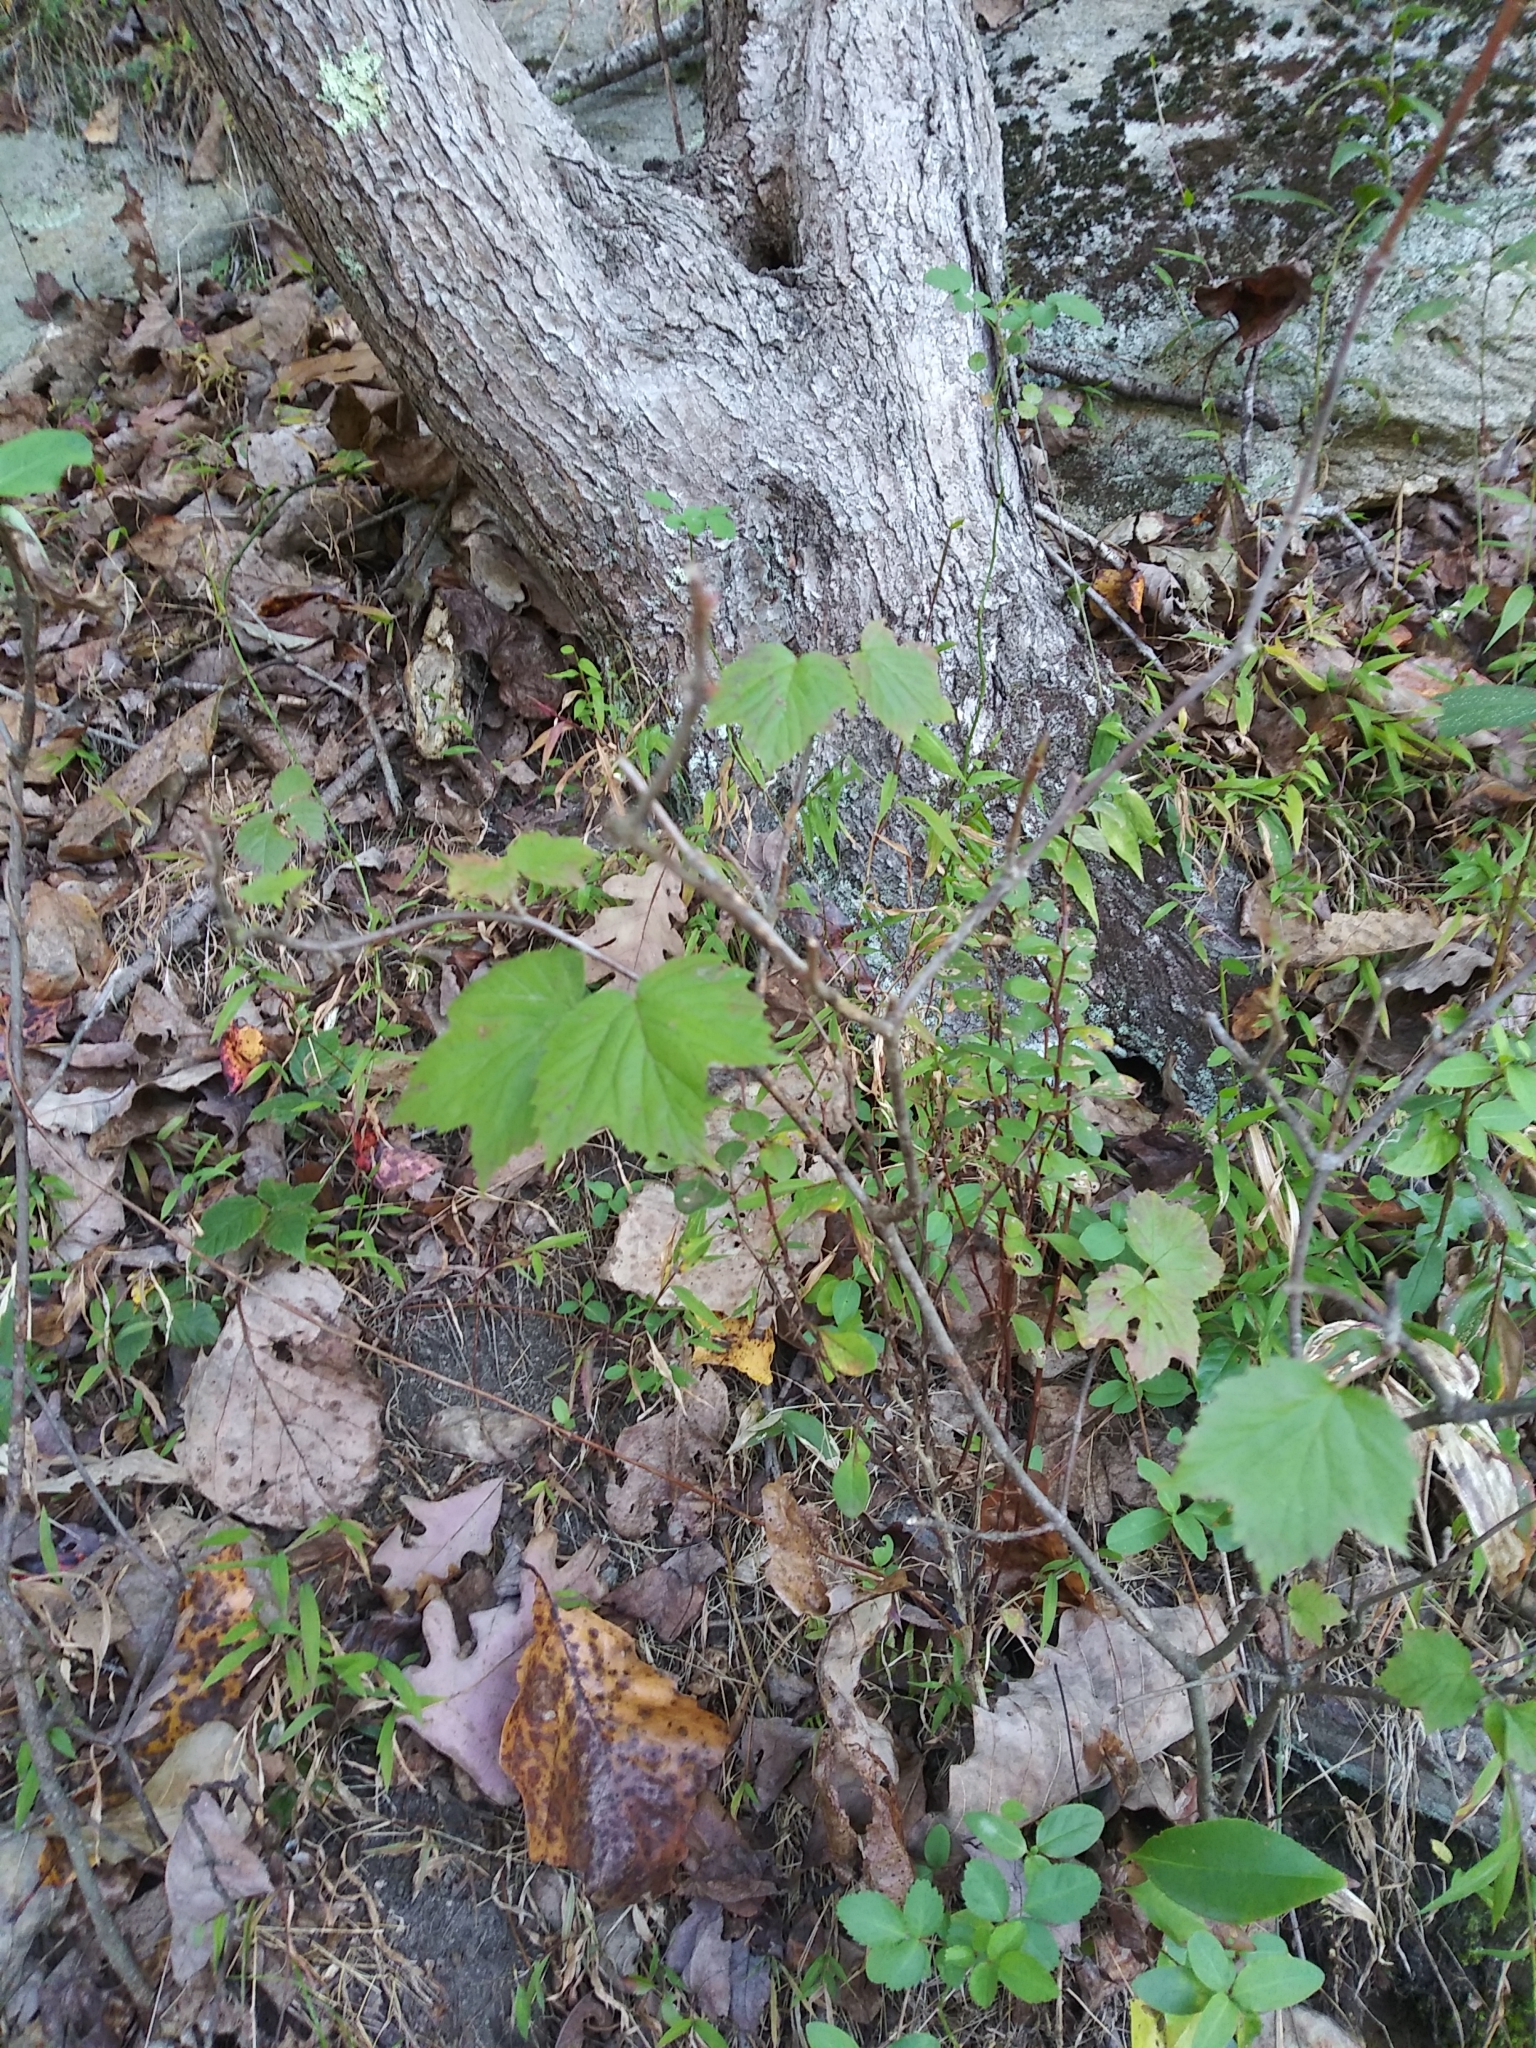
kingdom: Plantae
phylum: Tracheophyta
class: Magnoliopsida
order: Dipsacales
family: Viburnaceae
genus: Viburnum
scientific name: Viburnum acerifolium
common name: Dockmackie
